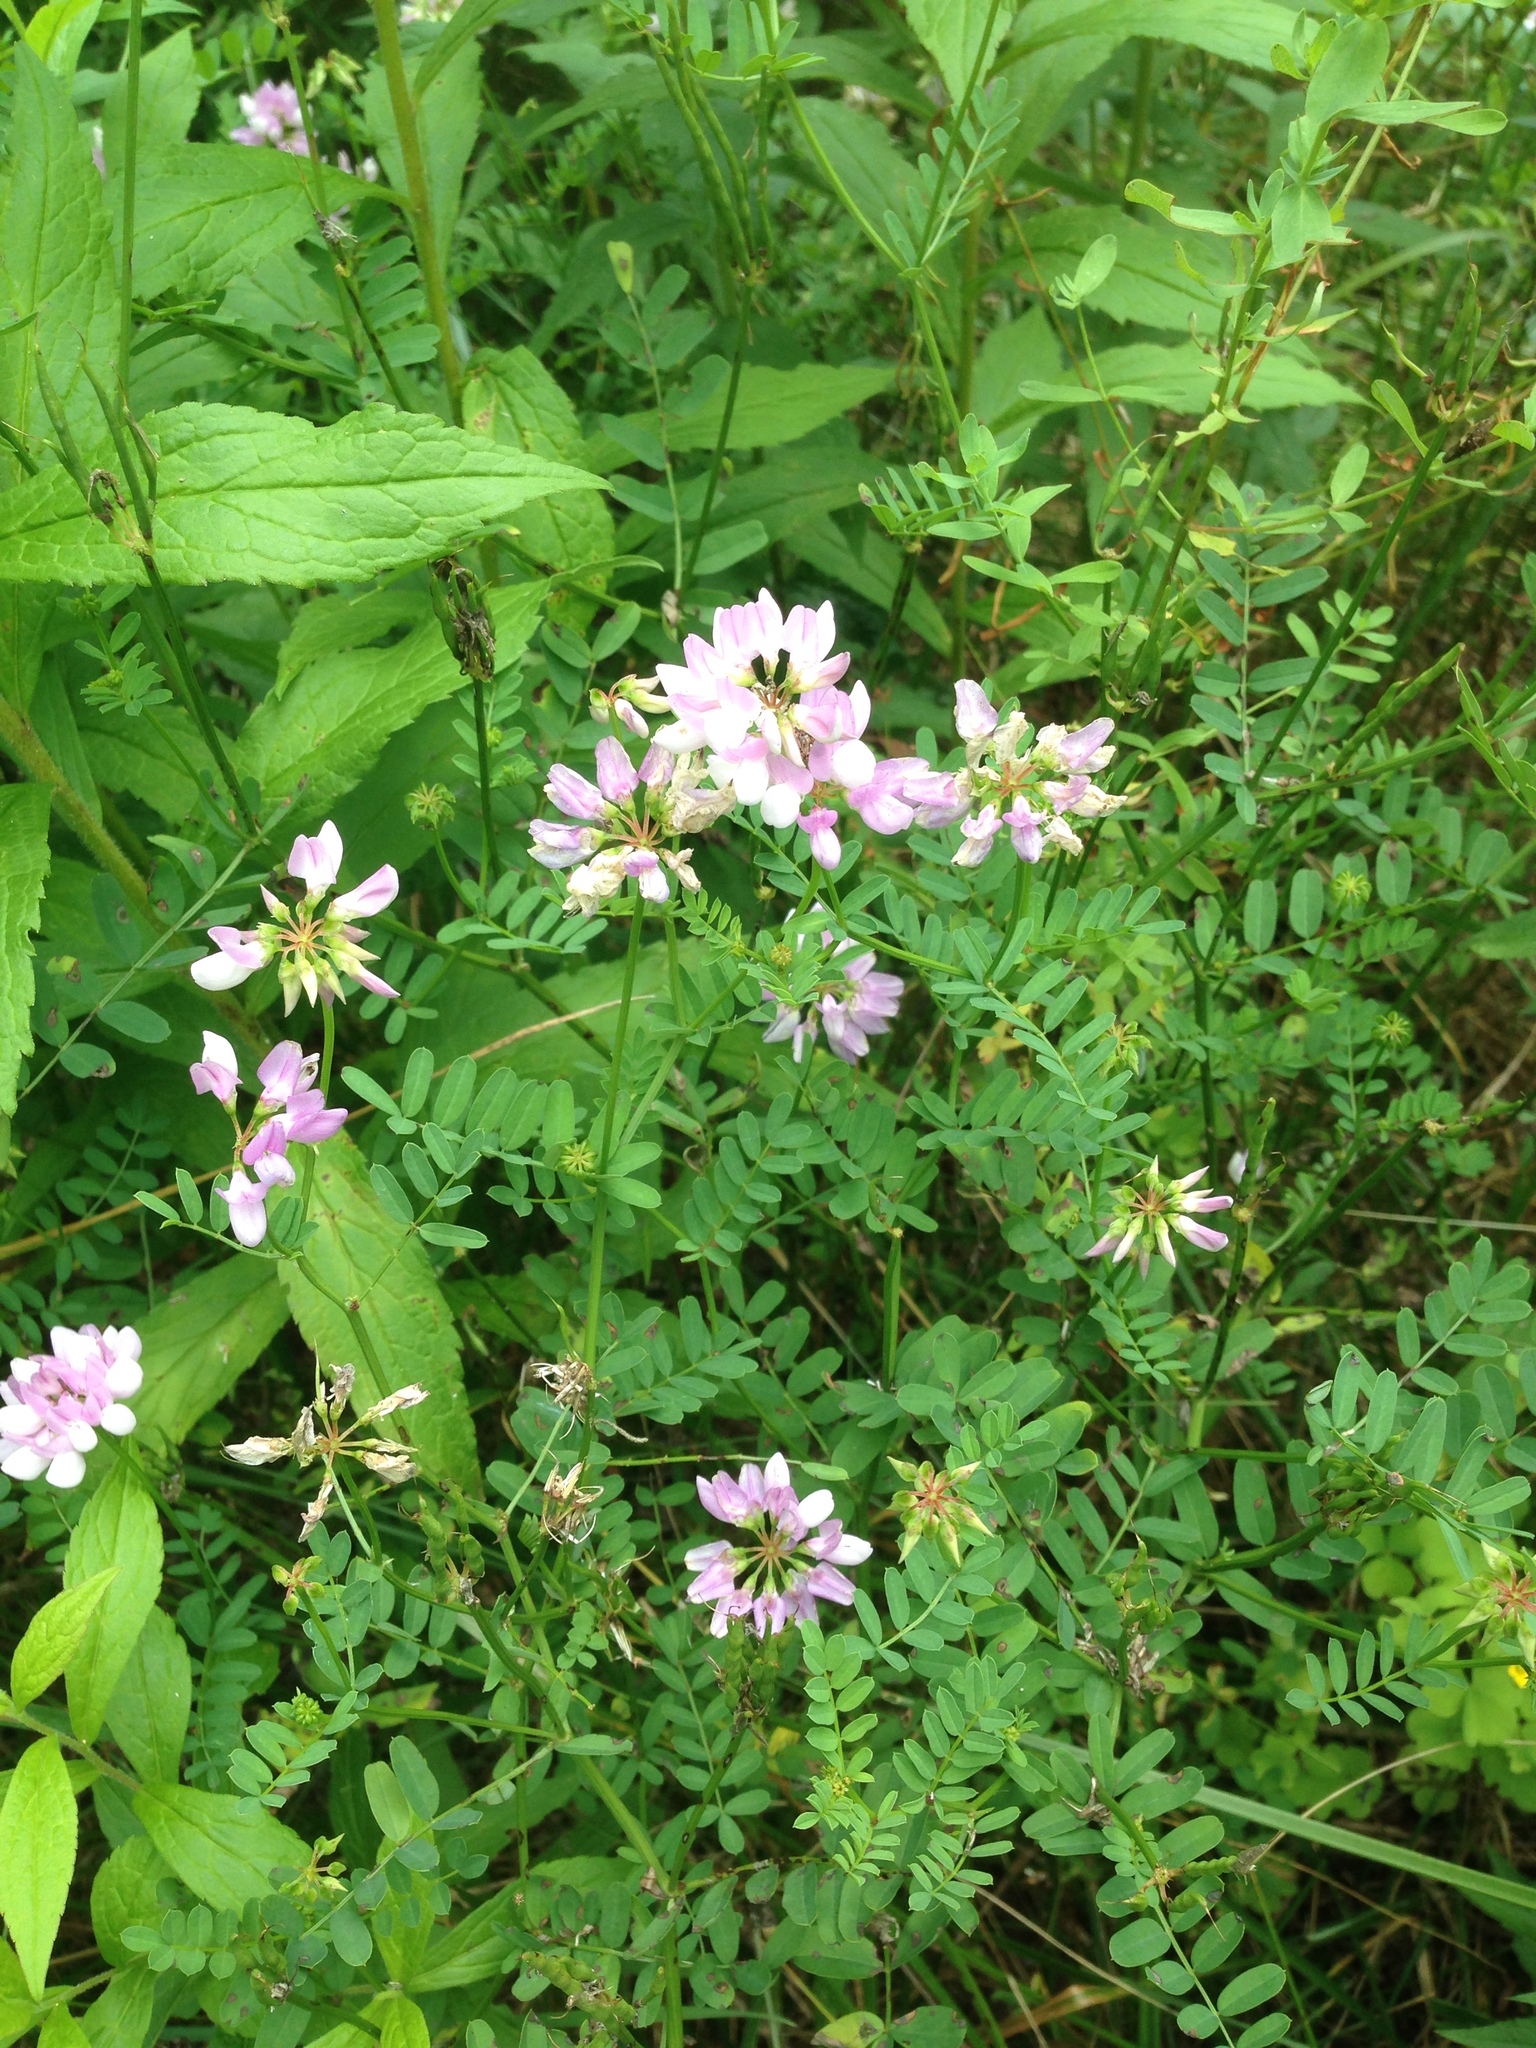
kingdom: Plantae
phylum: Tracheophyta
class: Magnoliopsida
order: Fabales
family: Fabaceae
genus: Coronilla
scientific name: Coronilla varia
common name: Crownvetch
